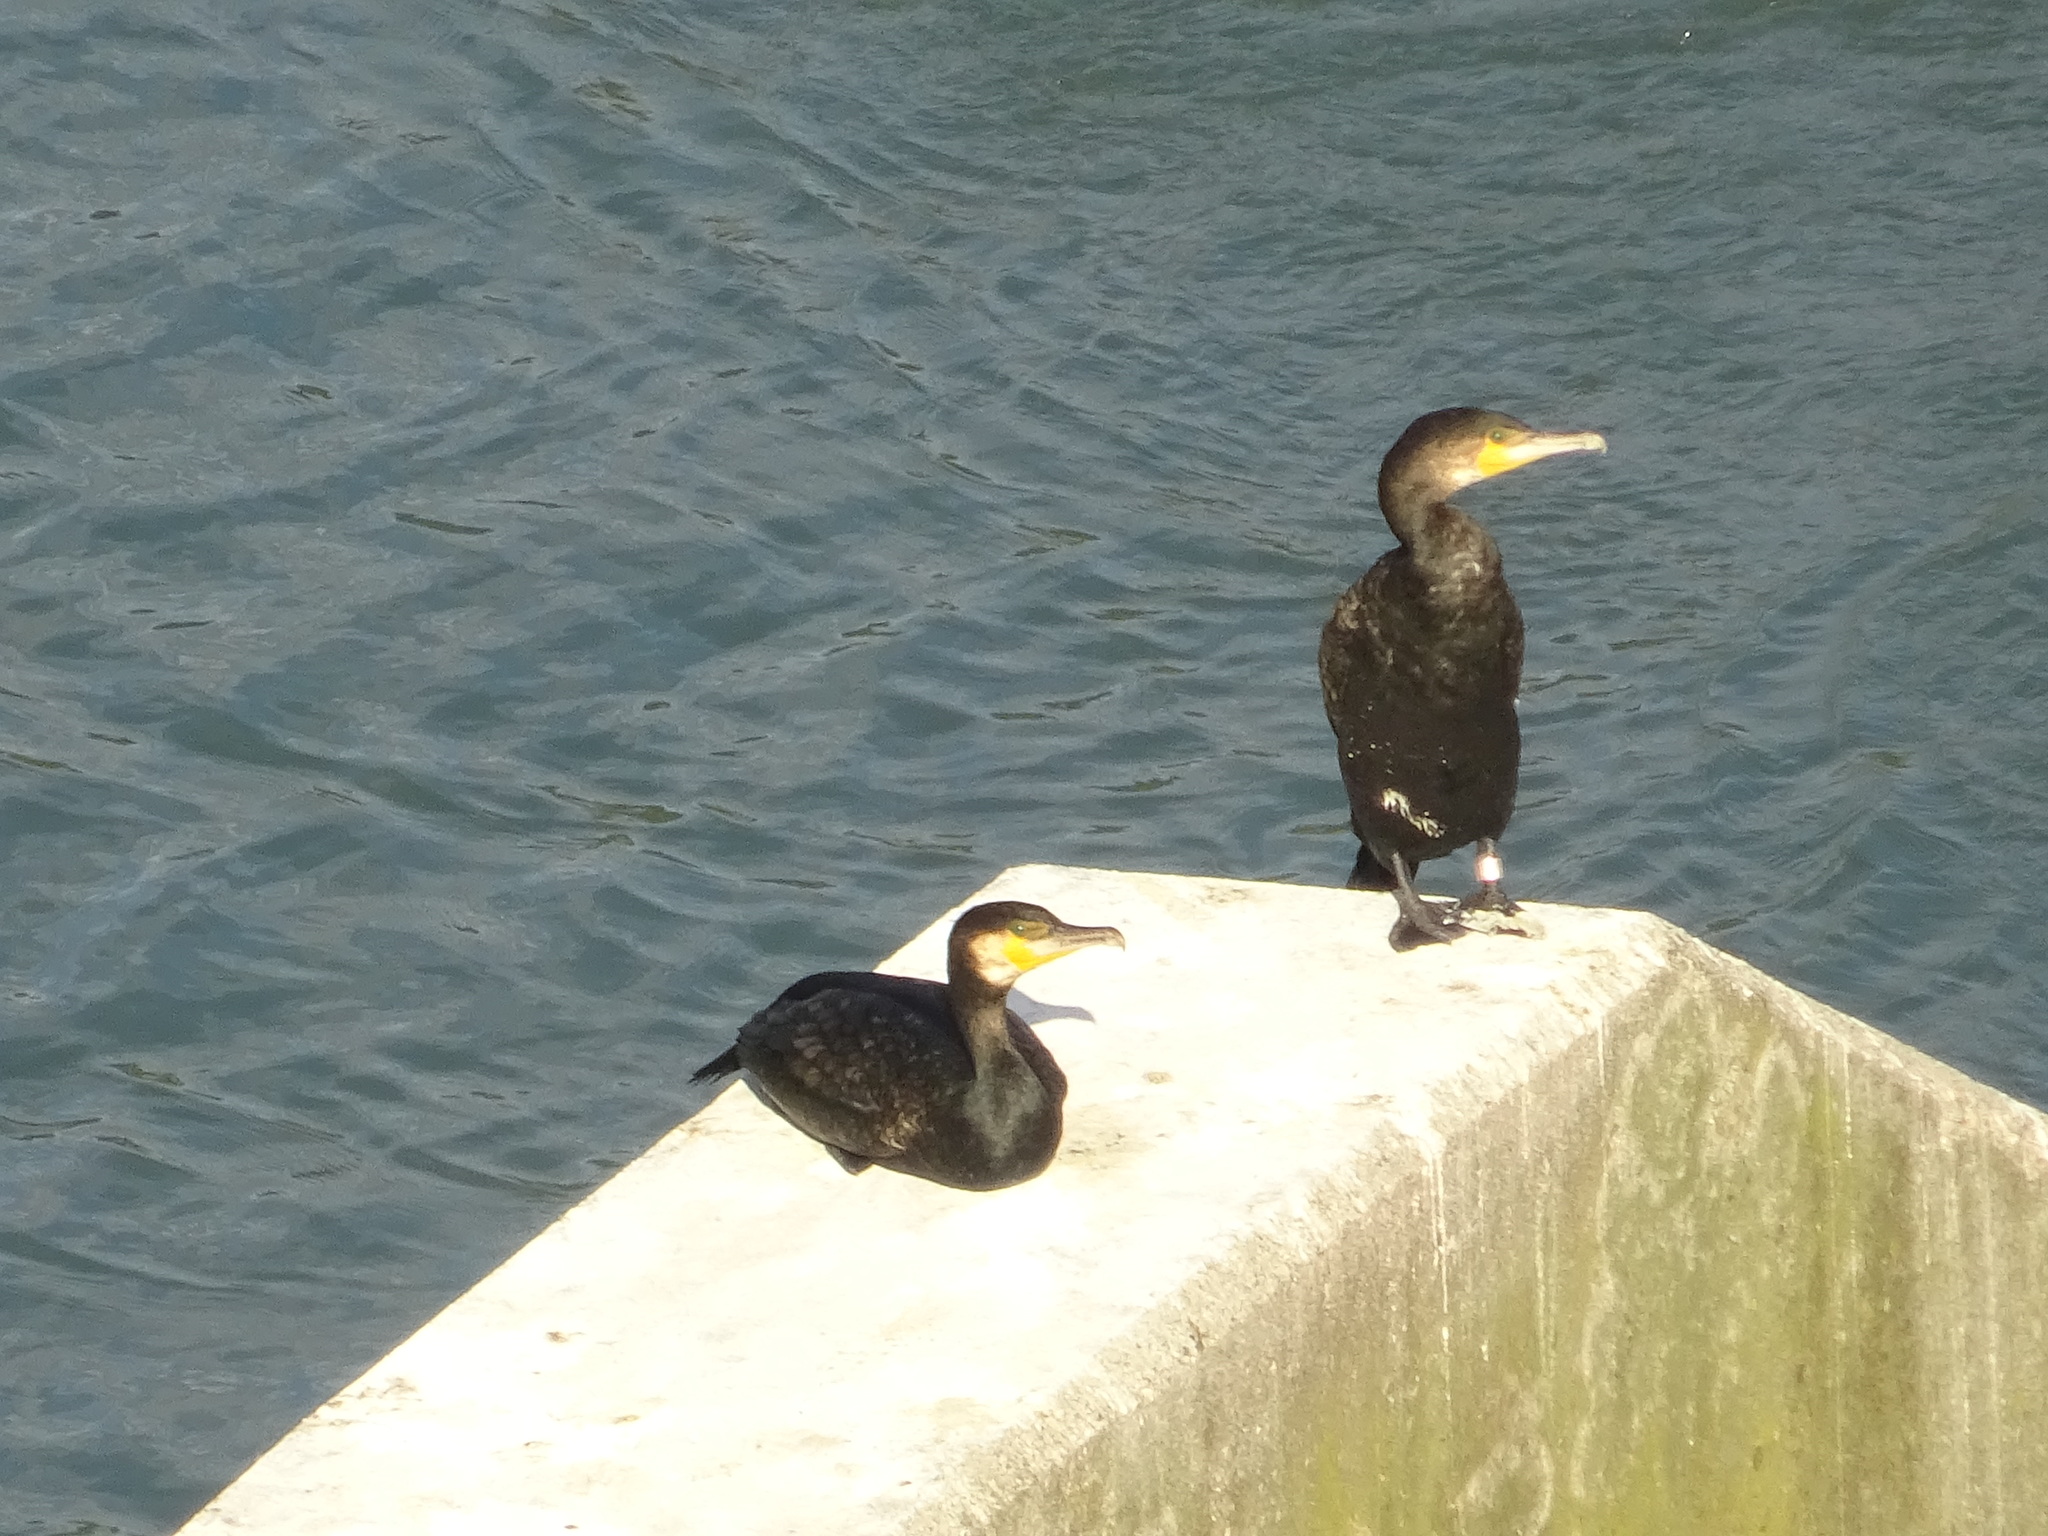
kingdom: Animalia
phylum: Chordata
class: Aves
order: Suliformes
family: Phalacrocoracidae
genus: Phalacrocorax
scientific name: Phalacrocorax carbo
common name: Great cormorant
